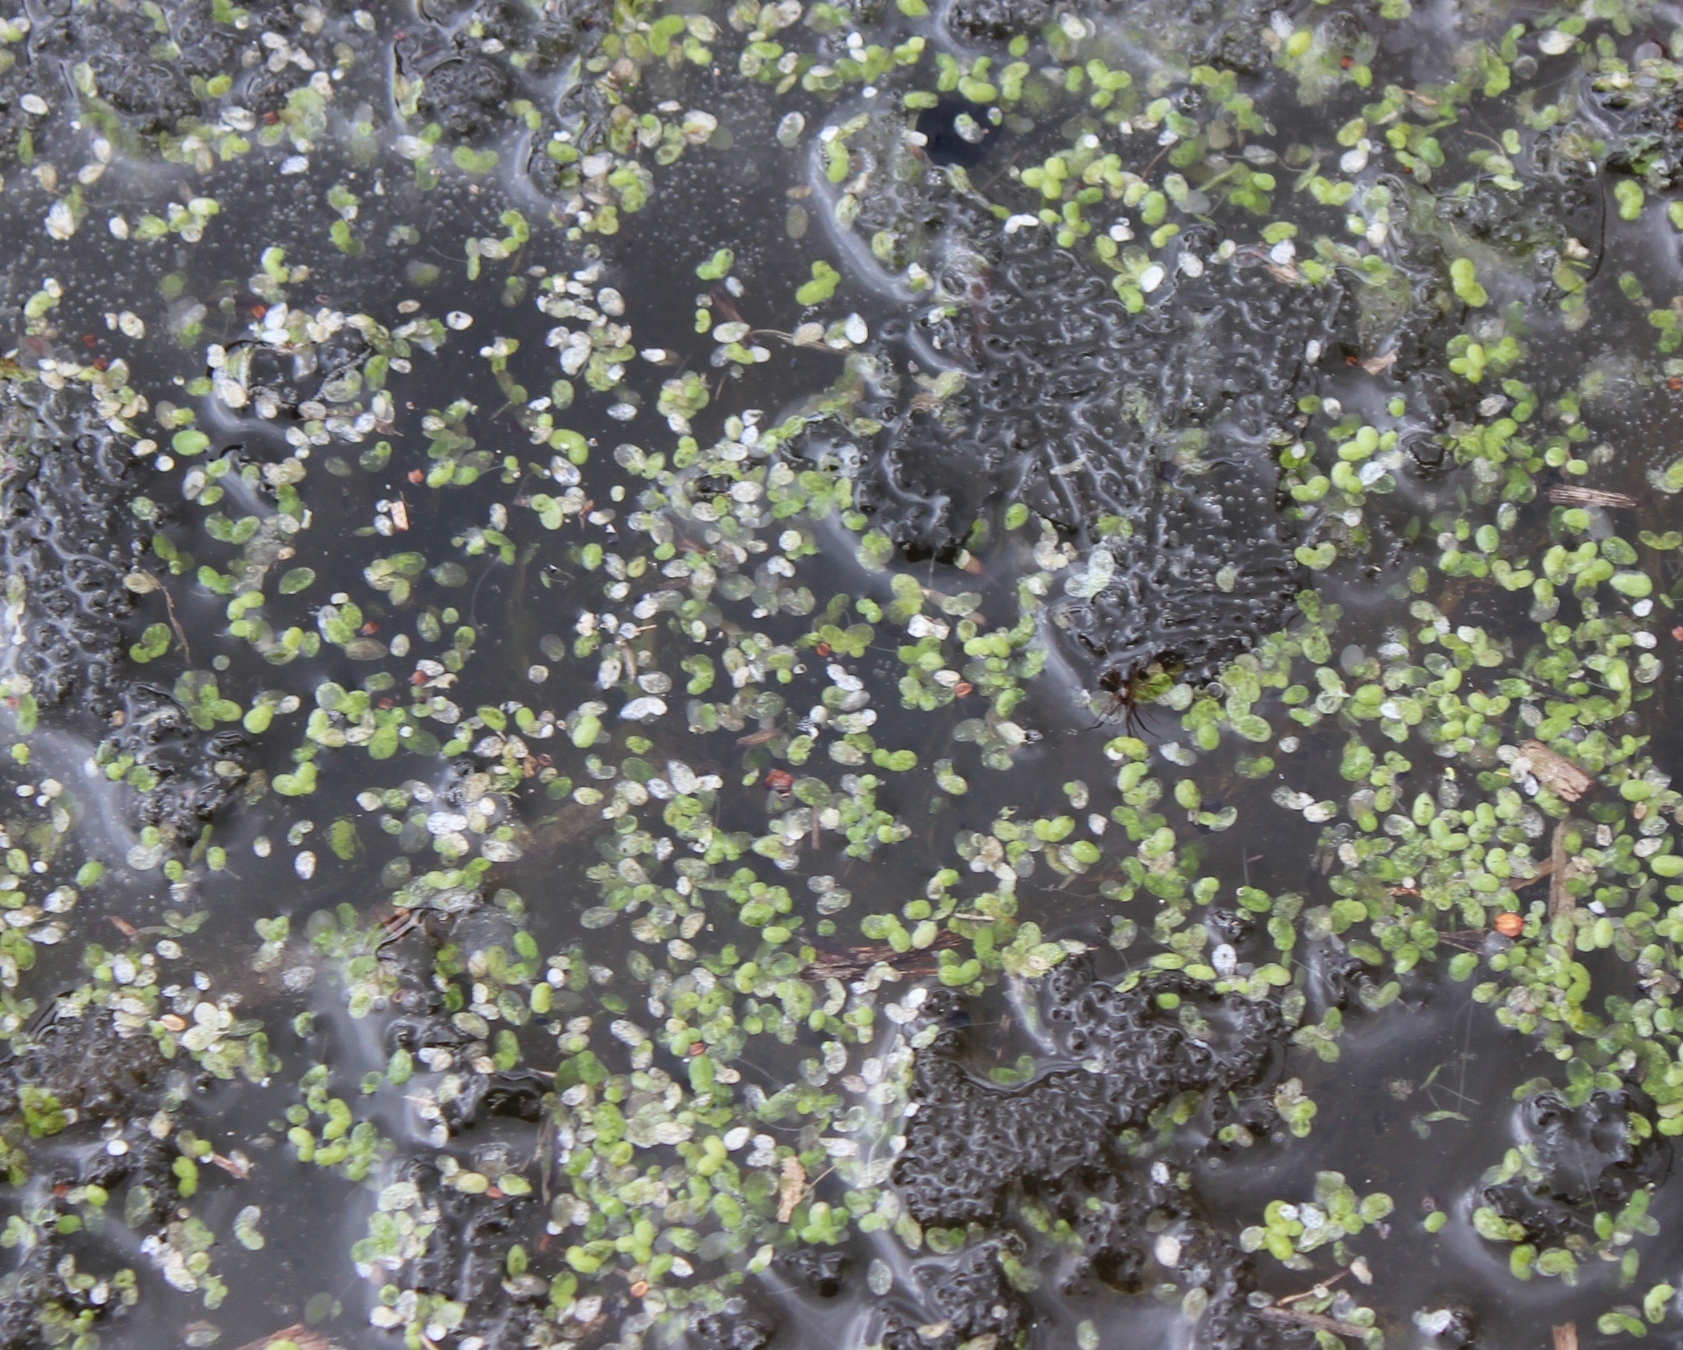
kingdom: Plantae
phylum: Tracheophyta
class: Liliopsida
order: Alismatales
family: Araceae
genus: Lemna
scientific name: Lemna minor
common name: Common duckweed
